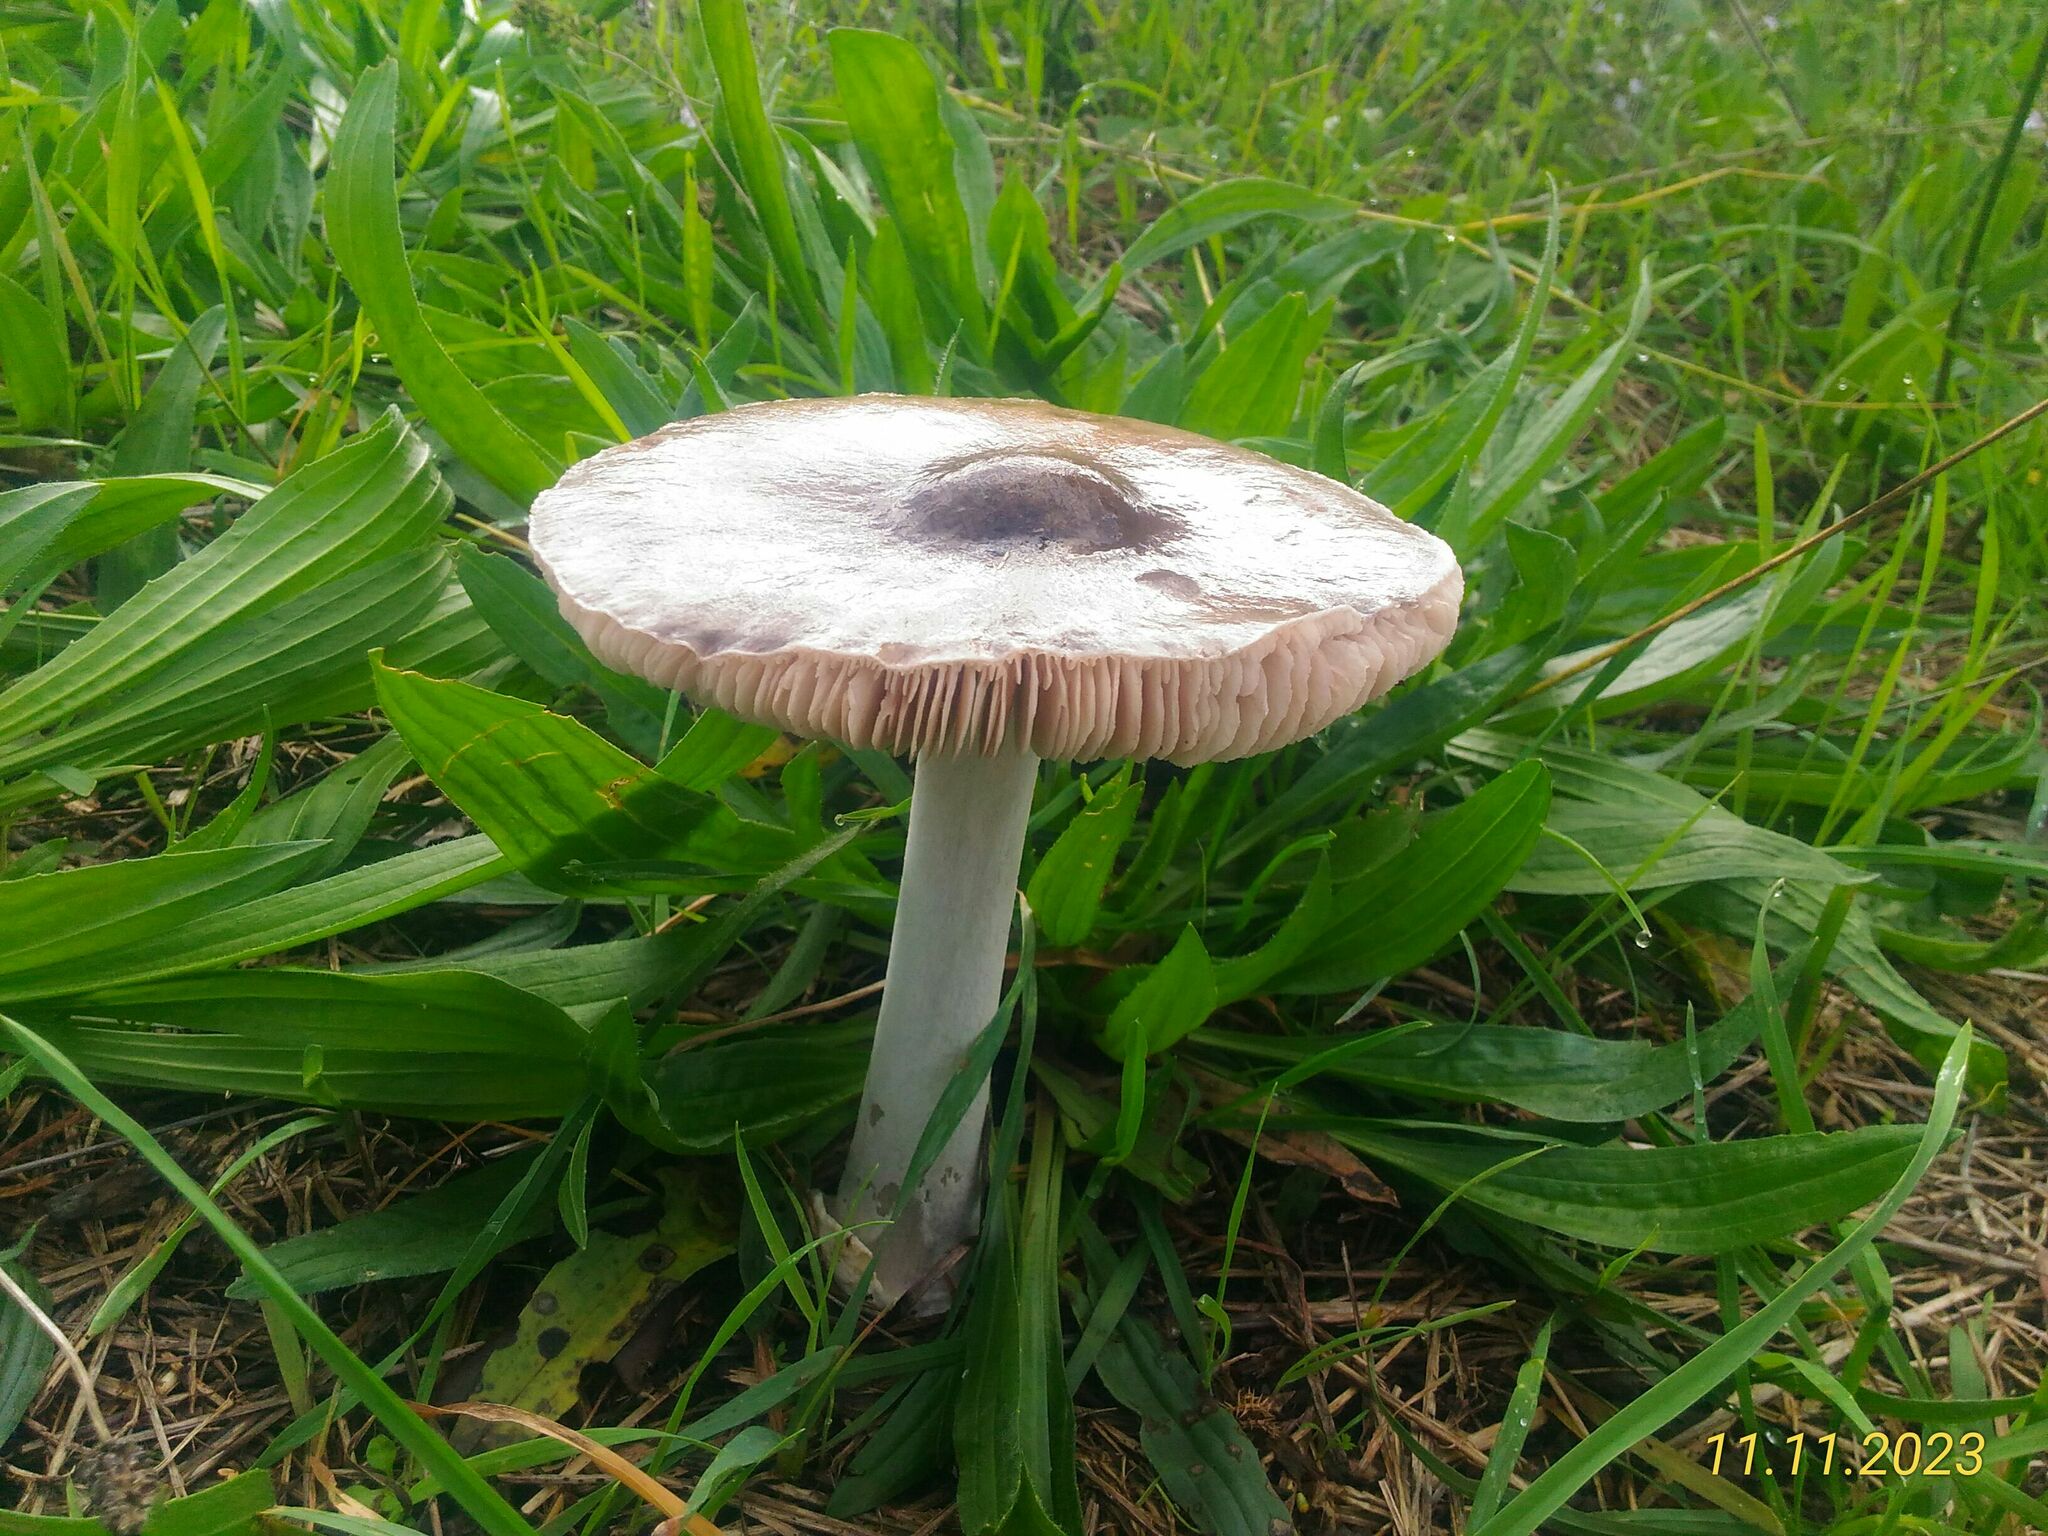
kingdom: Fungi
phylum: Basidiomycota
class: Agaricomycetes
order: Agaricales
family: Pluteaceae
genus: Volvopluteus
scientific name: Volvopluteus gloiocephalus
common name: Stubble rosegill
